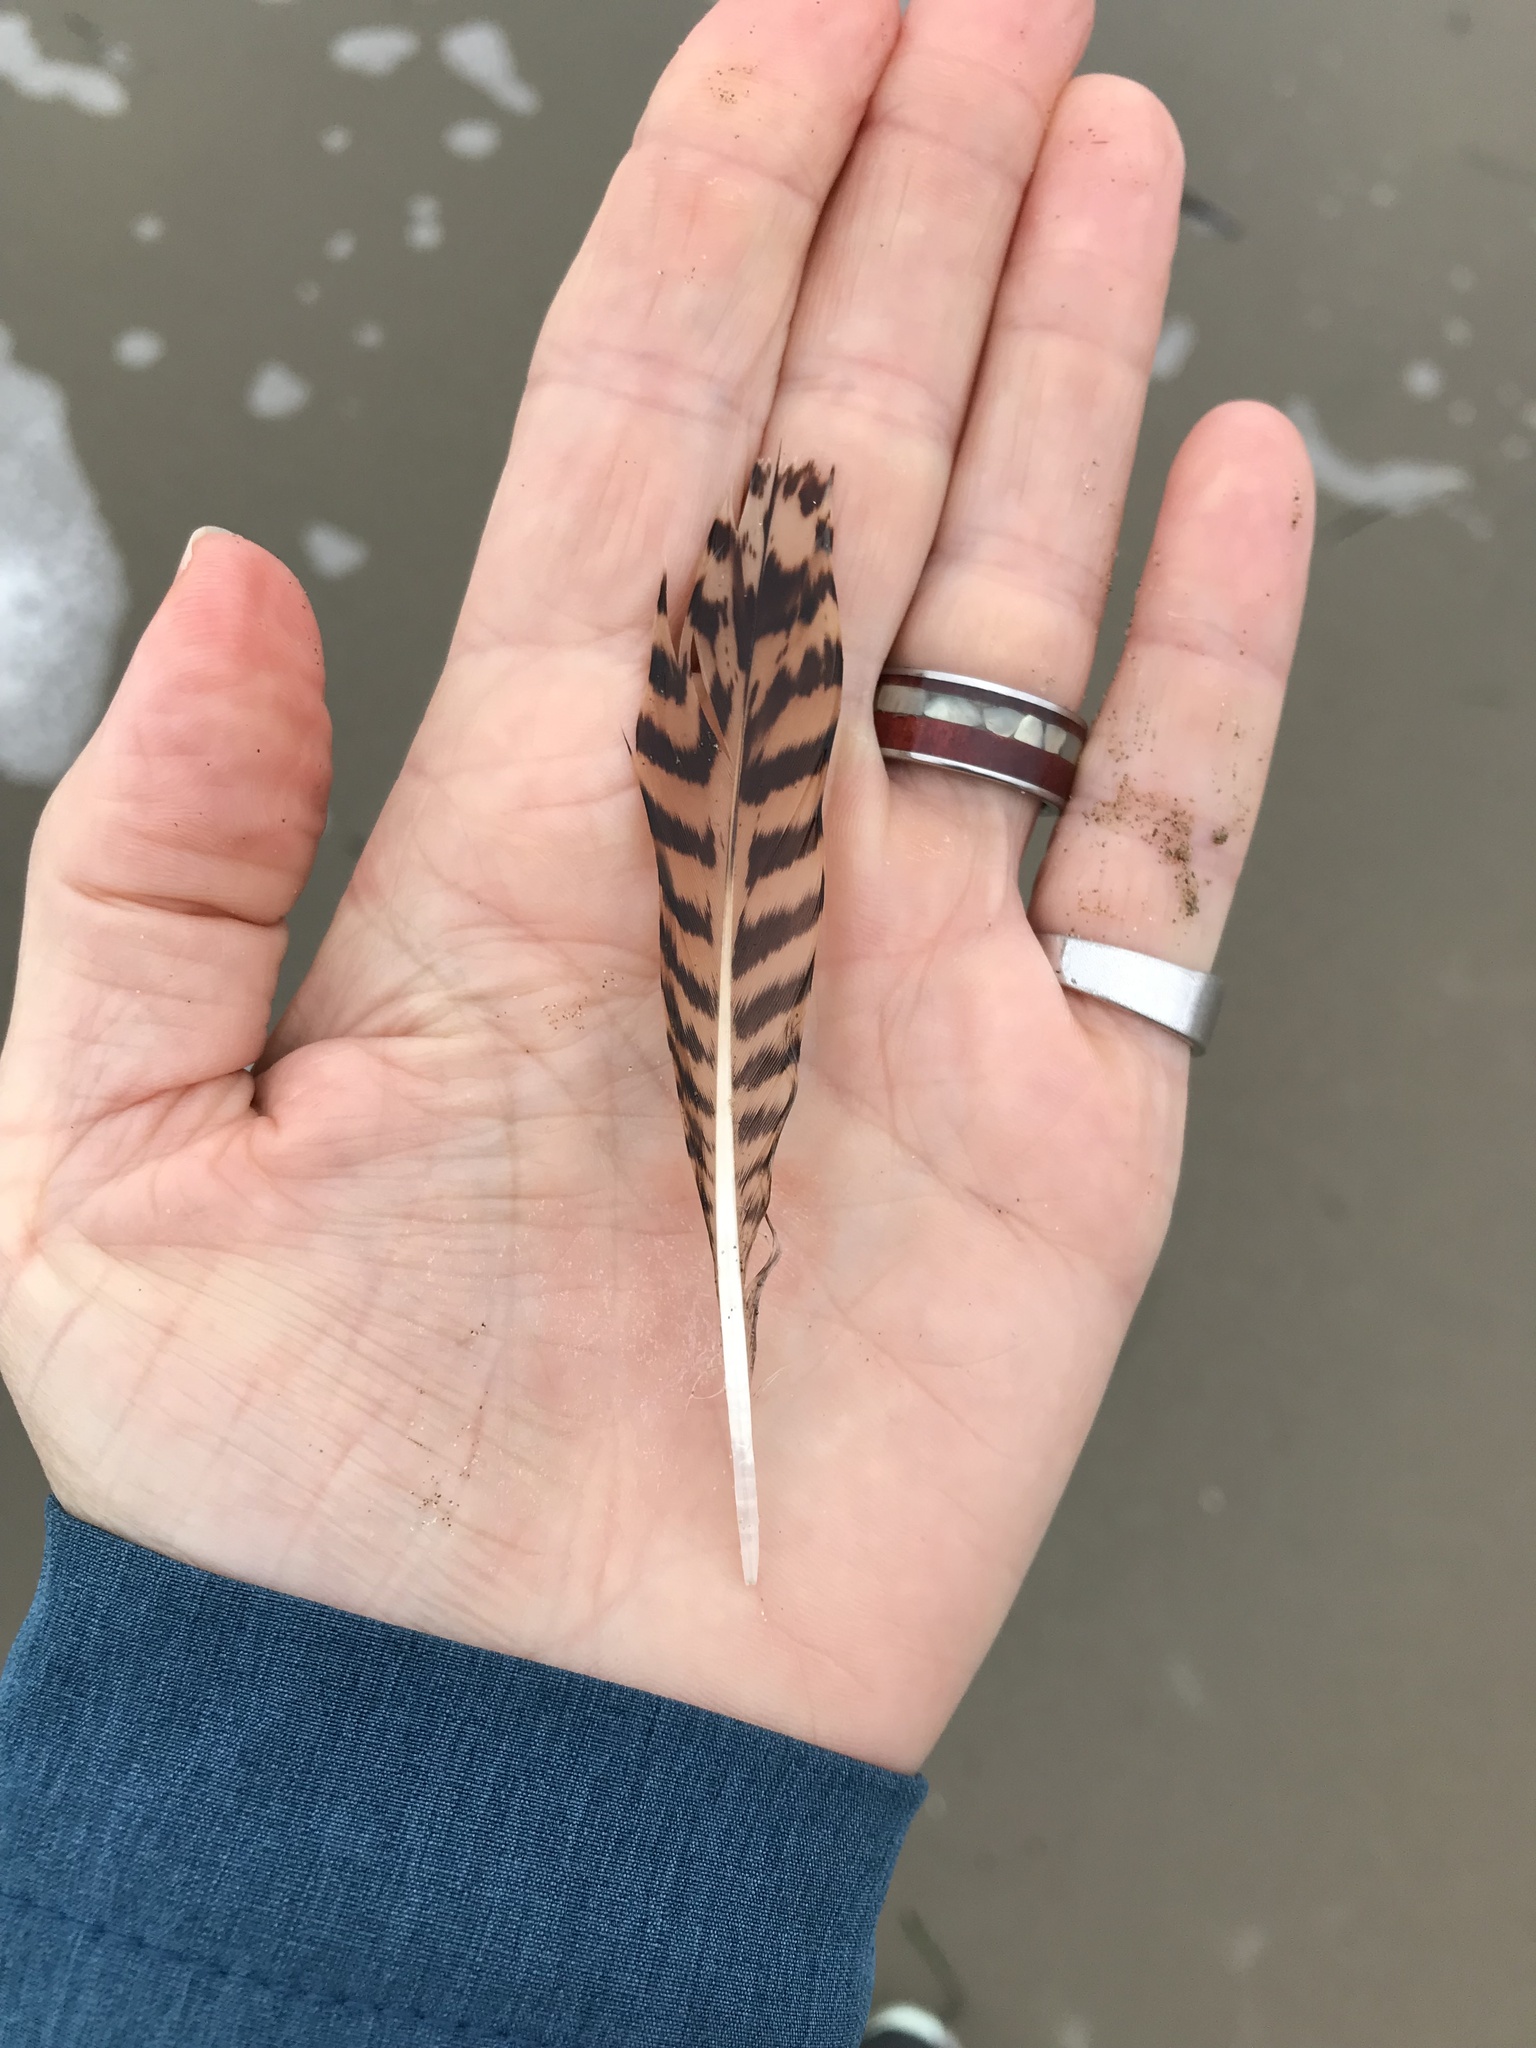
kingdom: Animalia
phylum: Chordata
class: Aves
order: Charadriiformes
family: Scolopacidae
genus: Numenius
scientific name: Numenius americanus
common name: Long-billed curlew
